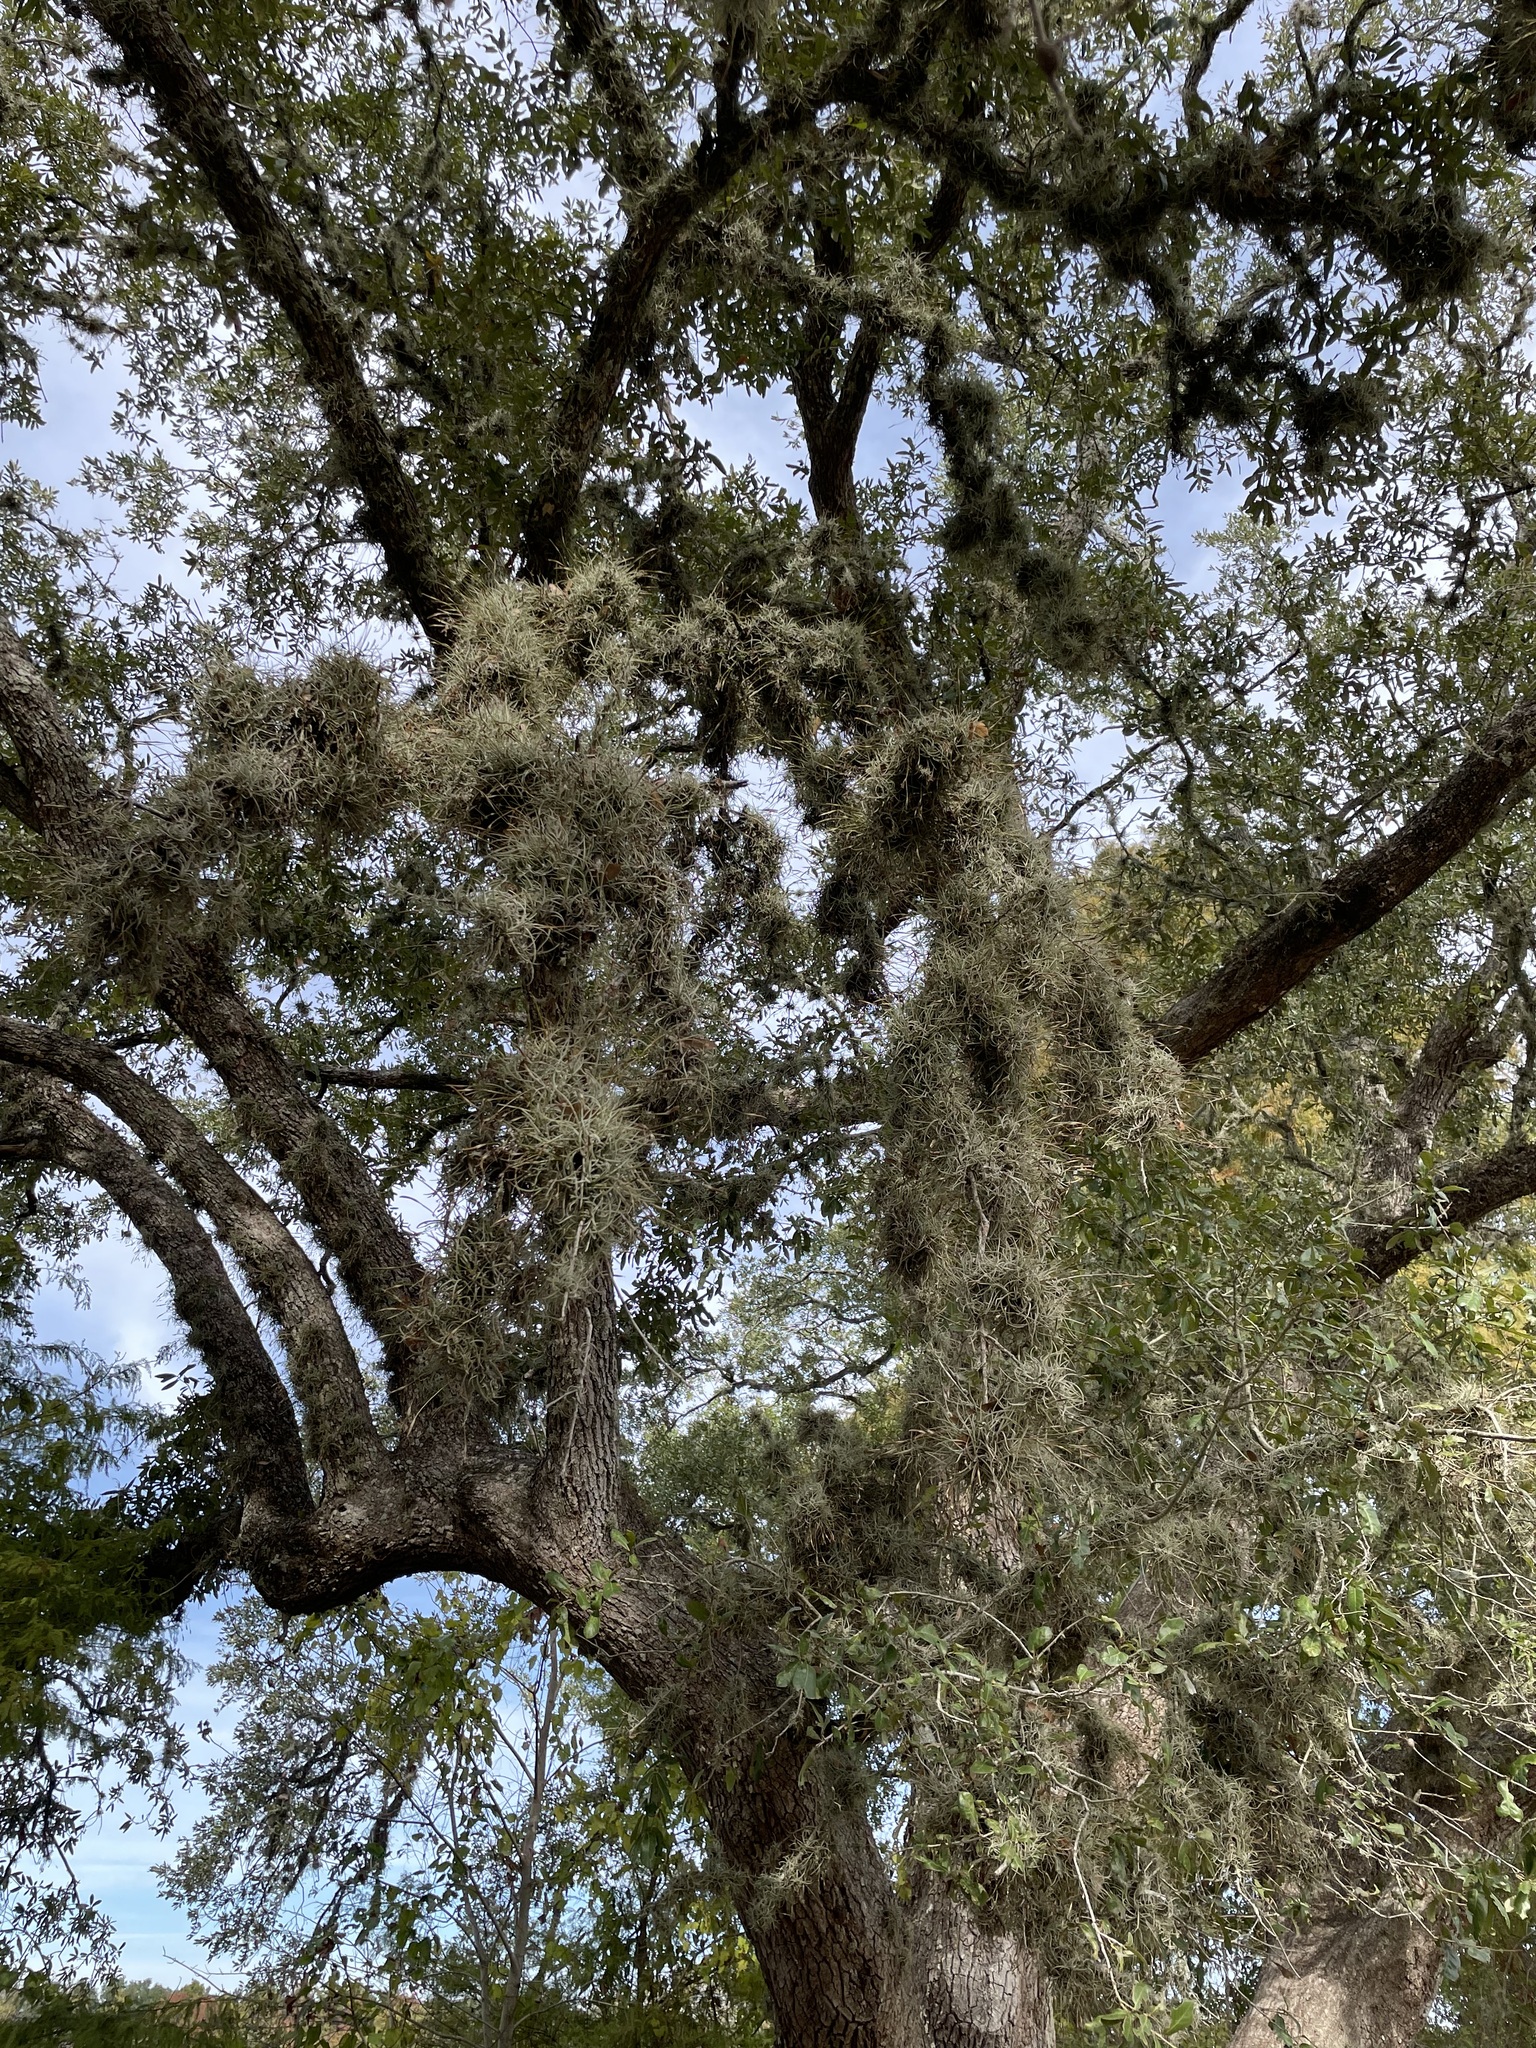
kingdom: Plantae
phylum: Tracheophyta
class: Liliopsida
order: Poales
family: Bromeliaceae
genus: Tillandsia
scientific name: Tillandsia recurvata
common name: Small ballmoss
